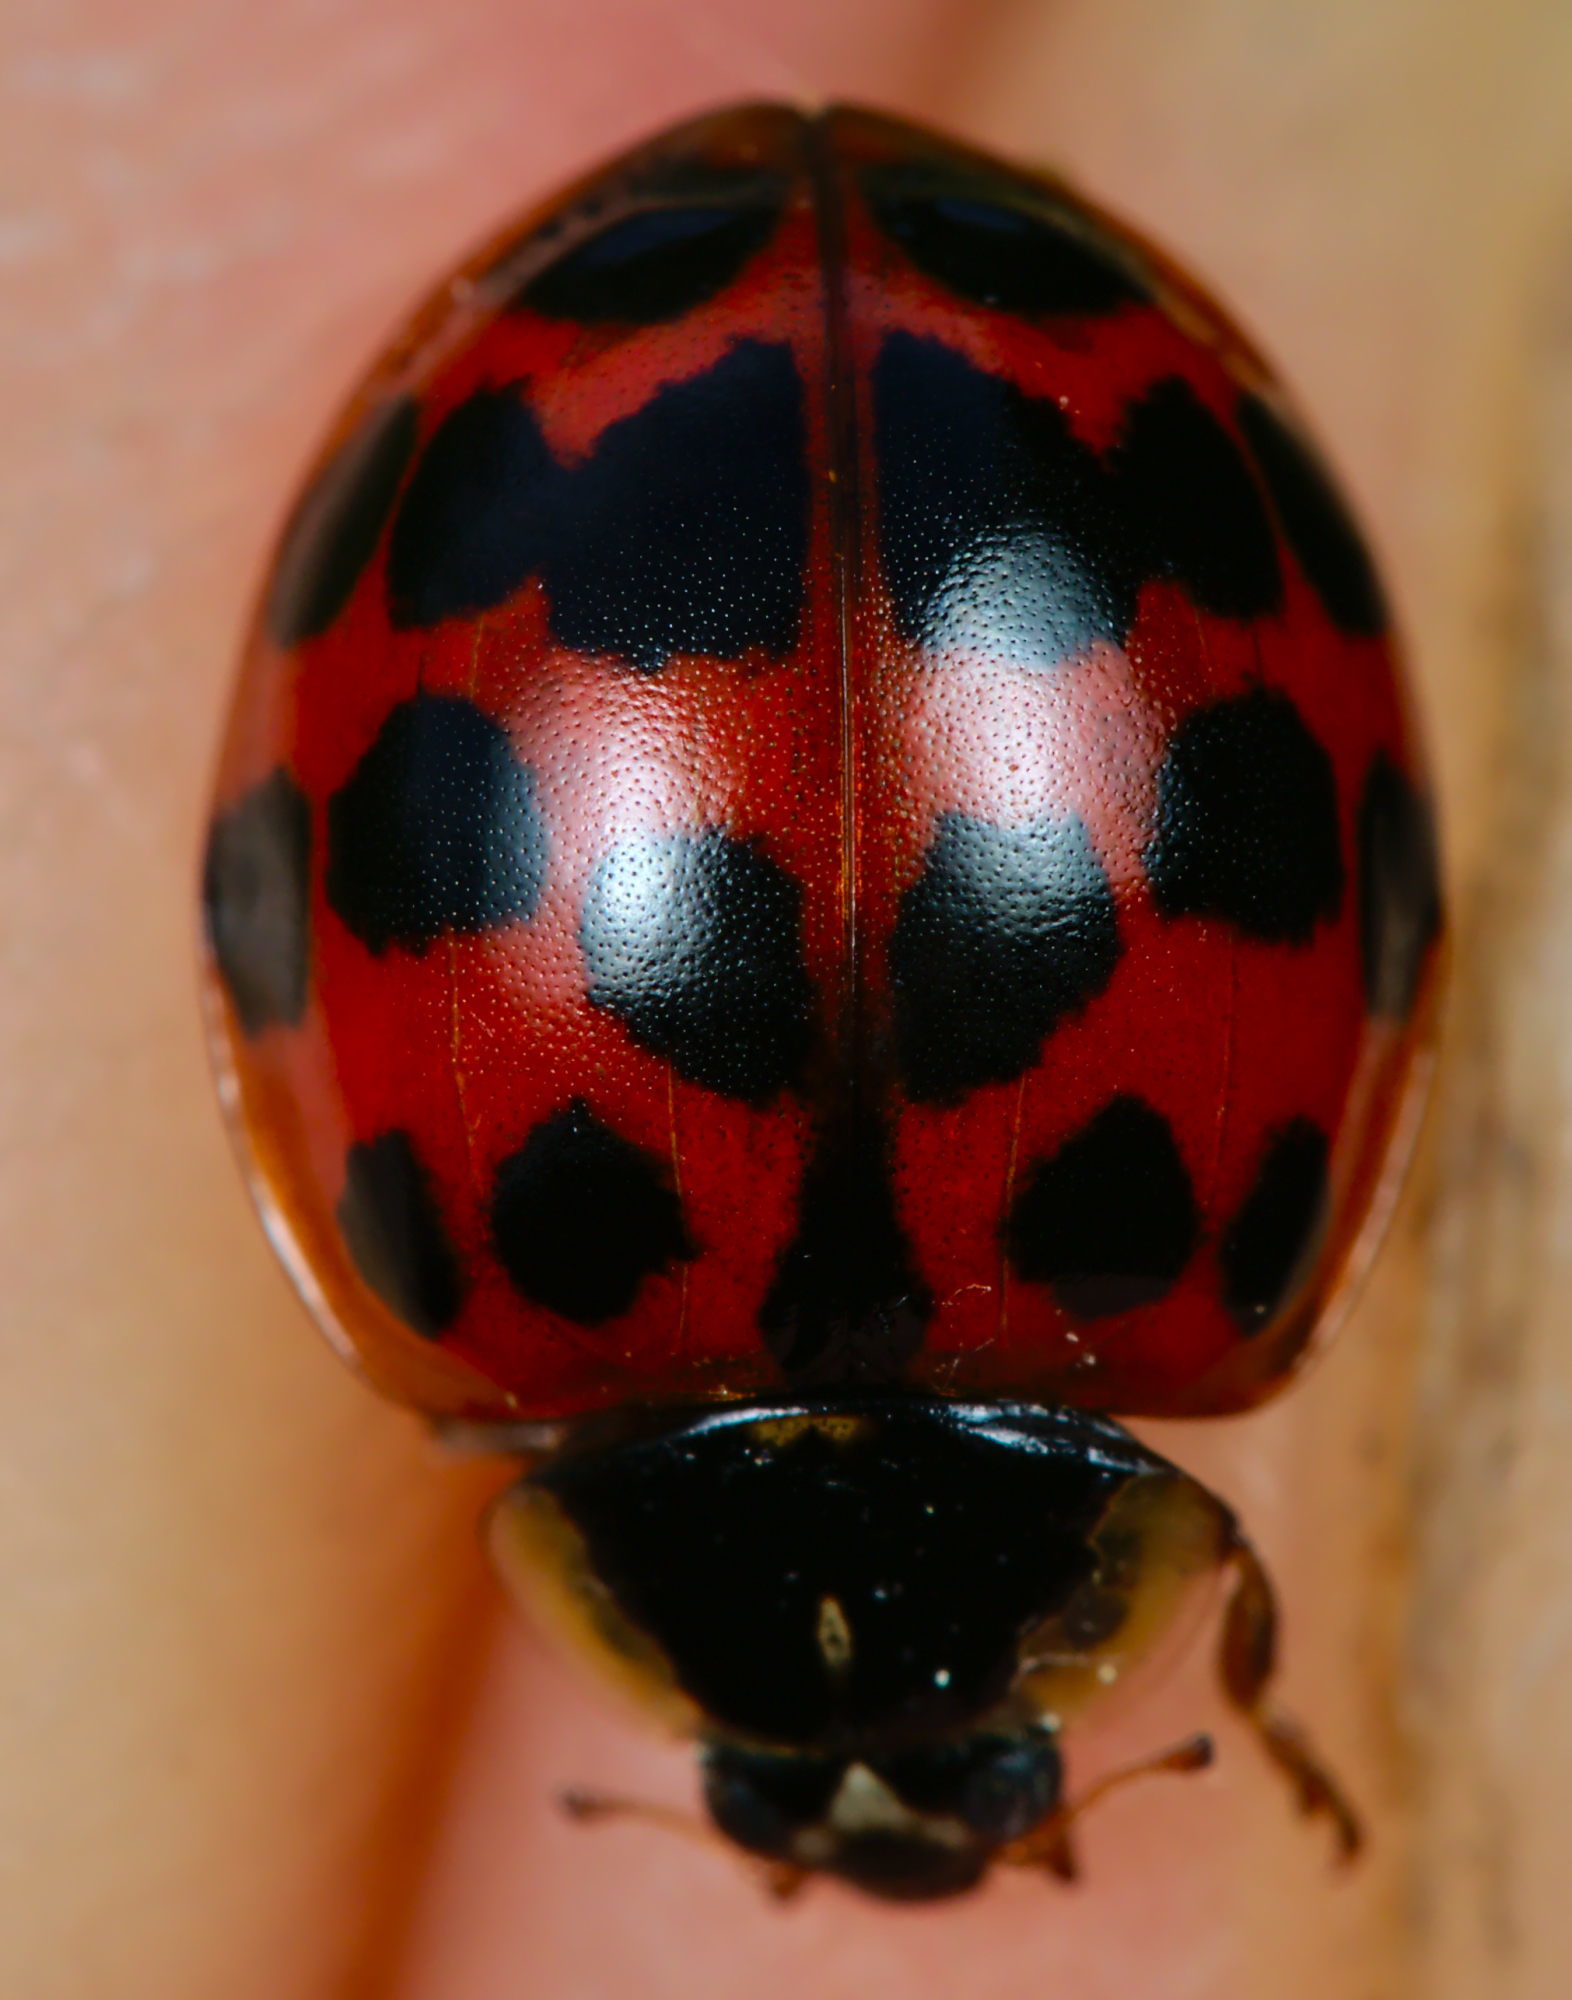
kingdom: Animalia
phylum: Arthropoda
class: Insecta
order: Coleoptera
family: Coccinellidae
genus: Harmonia
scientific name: Harmonia axyridis
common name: Harlequin ladybird
